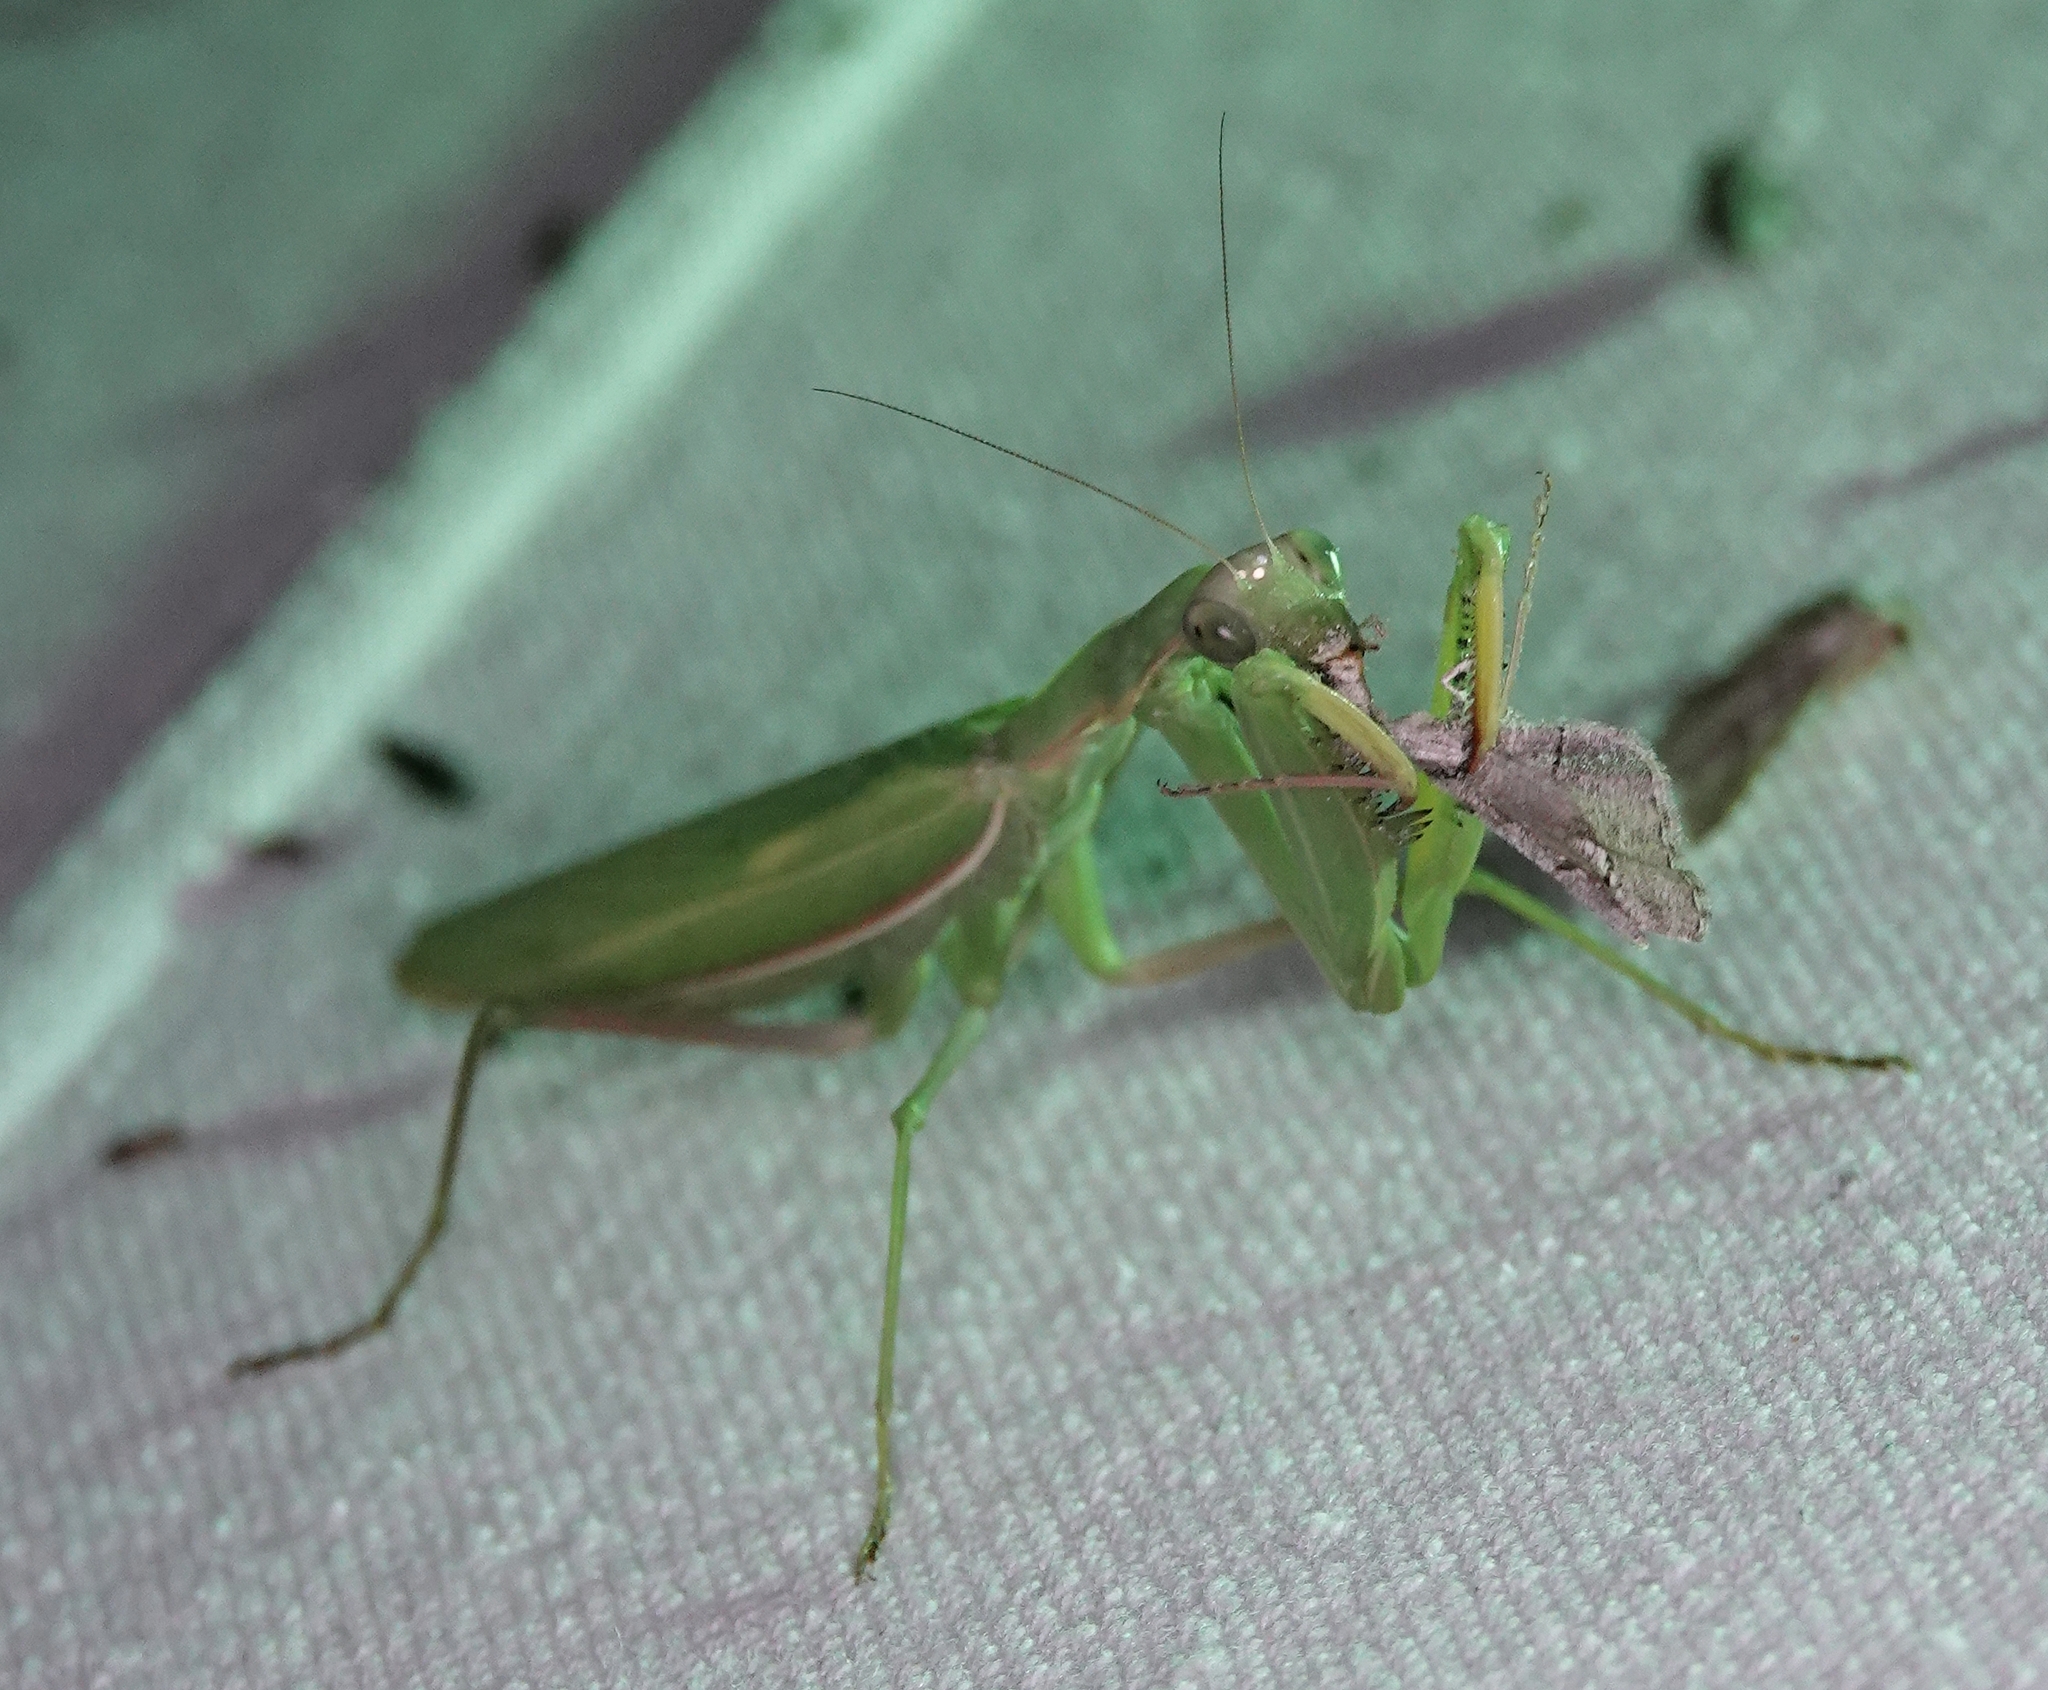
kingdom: Animalia
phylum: Arthropoda
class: Insecta
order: Mantodea
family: Mantidae
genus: Mantis
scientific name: Mantis religiosa
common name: Praying mantis
